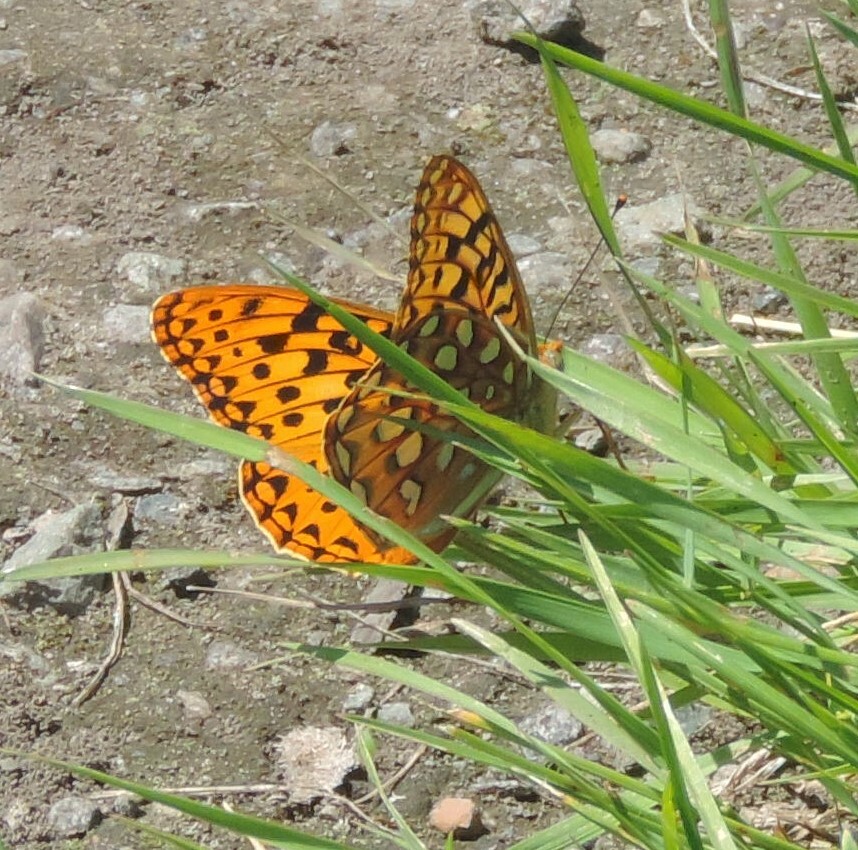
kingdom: Animalia
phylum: Arthropoda
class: Insecta
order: Lepidoptera
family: Nymphalidae
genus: Speyeria
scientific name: Speyeria zerene
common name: Zerene fritillary
